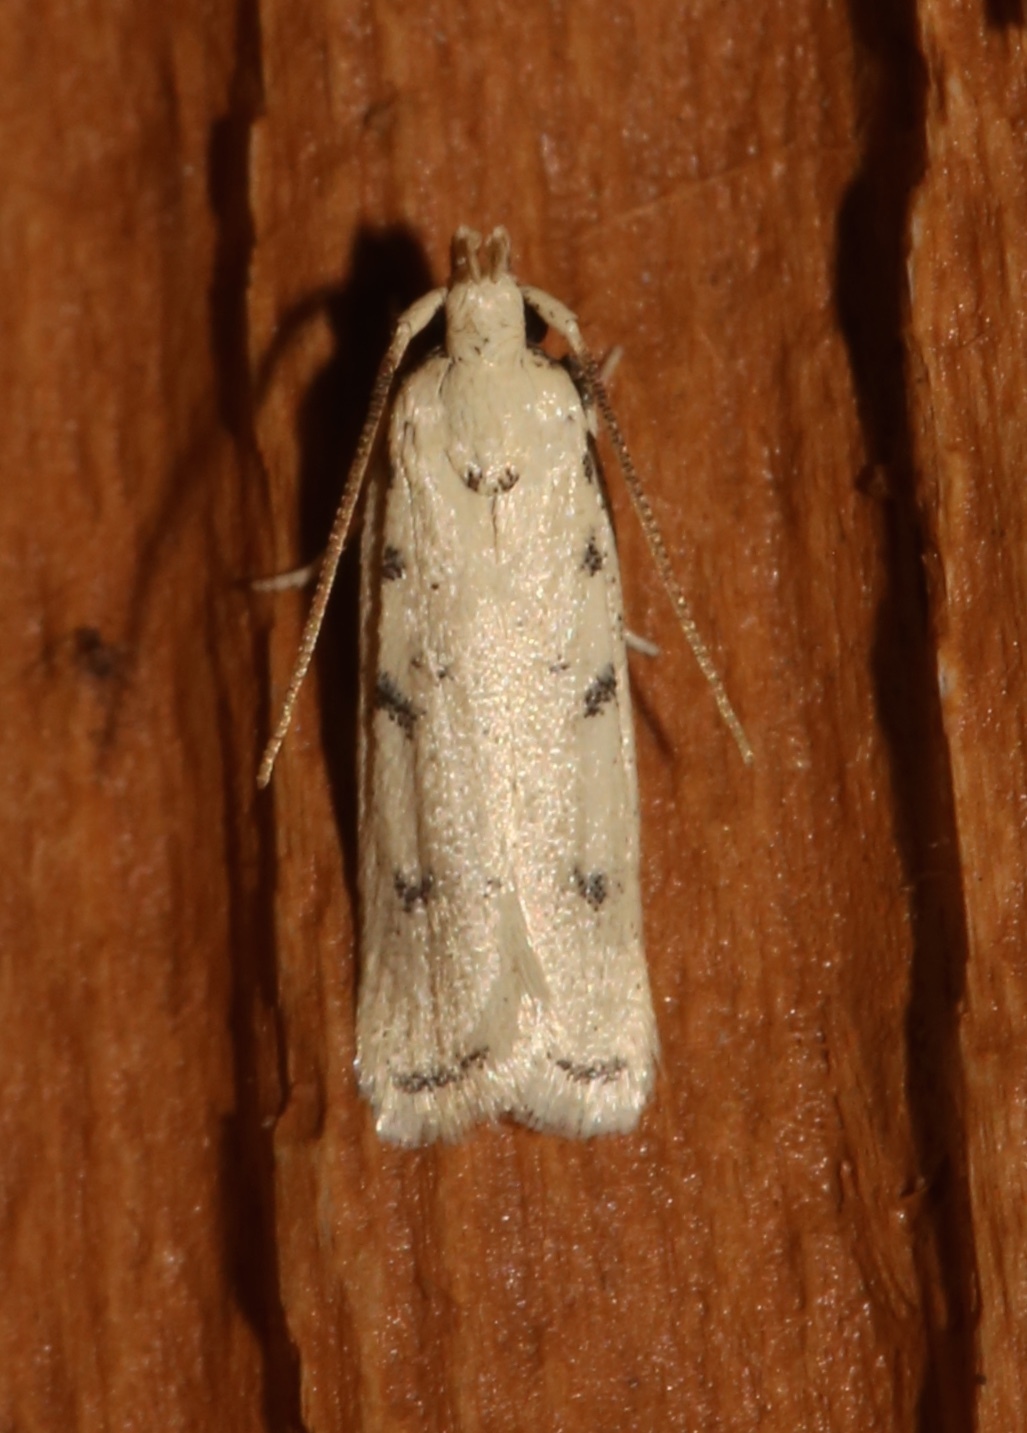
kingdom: Animalia
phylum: Arthropoda
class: Insecta
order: Lepidoptera
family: Autostichidae
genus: Glyphidocera
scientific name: Glyphidocera lactiflosella
